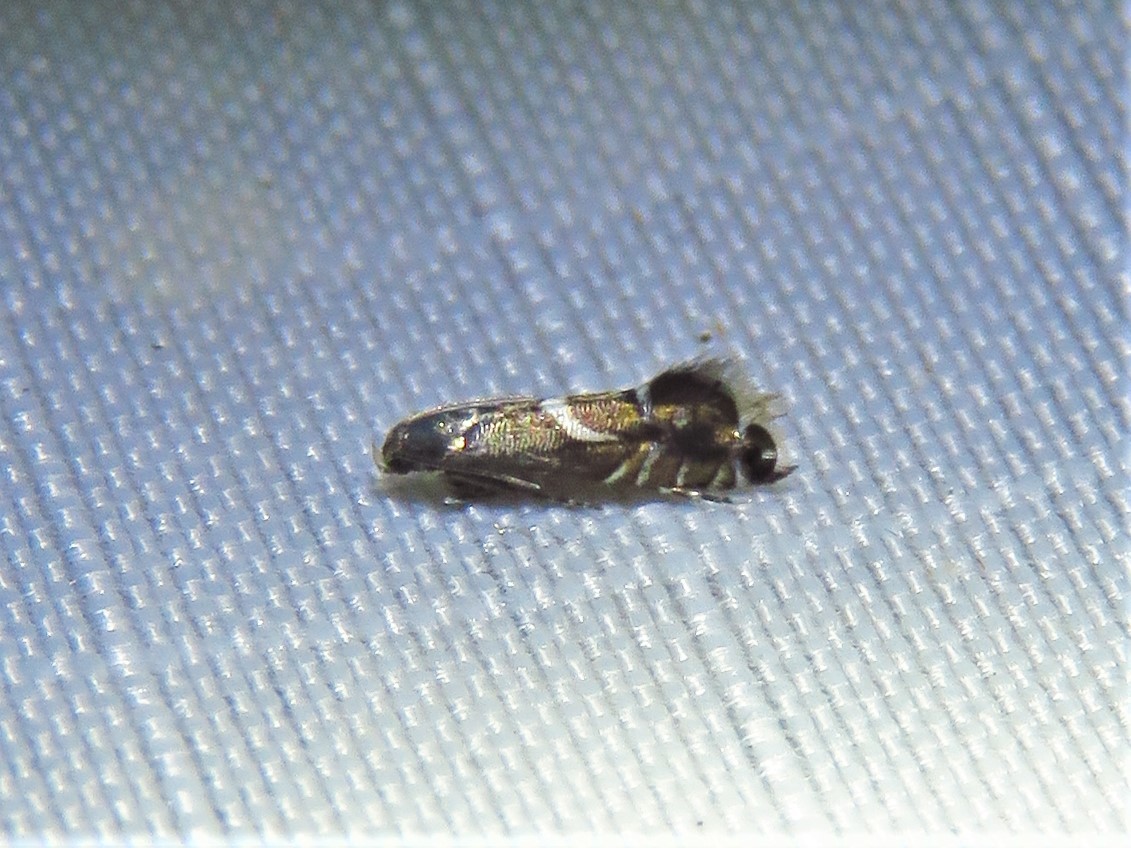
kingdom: Animalia
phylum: Arthropoda
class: Insecta
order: Lepidoptera
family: Glyphipterigidae
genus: Glyphipterix
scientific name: Glyphipterix Diploschizia impigritella
